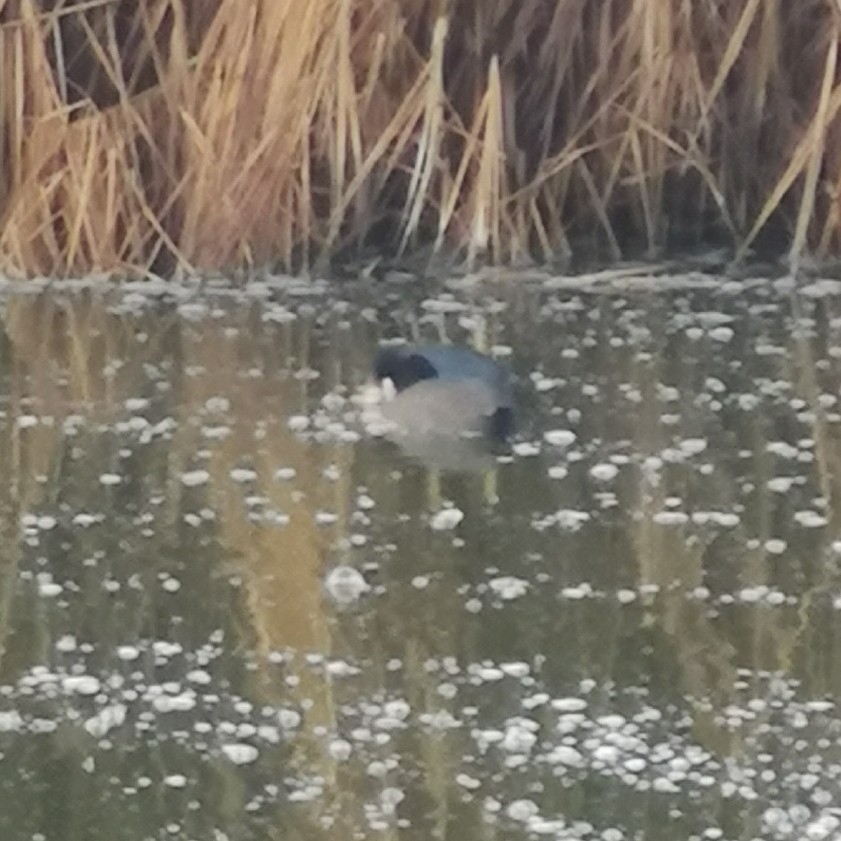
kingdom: Animalia
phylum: Chordata
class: Aves
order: Gruiformes
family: Rallidae
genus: Fulica
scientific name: Fulica atra
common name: Eurasian coot
